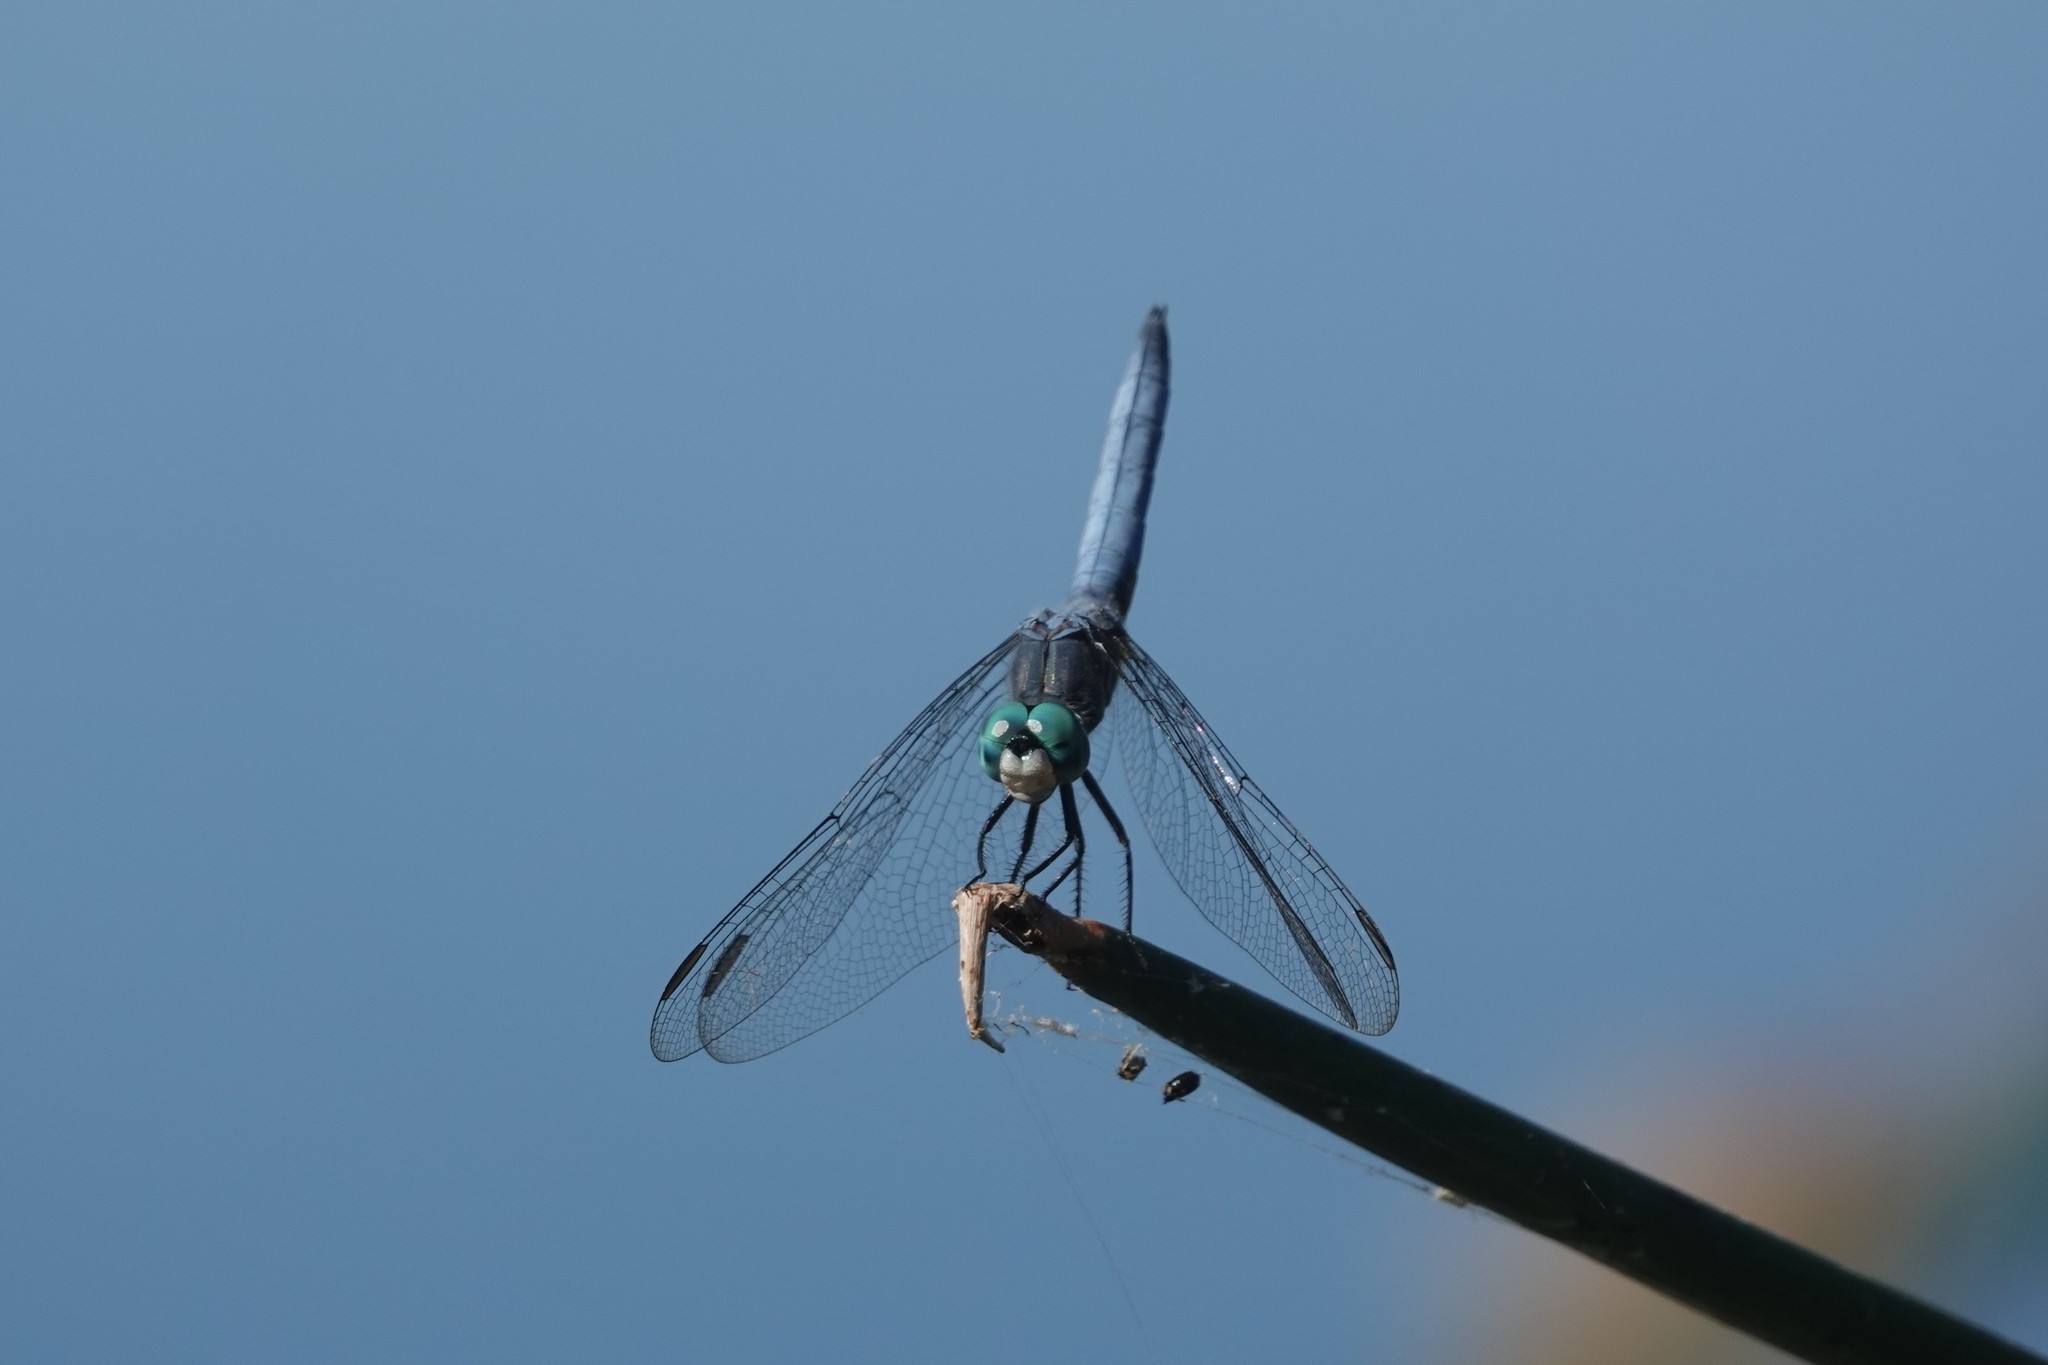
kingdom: Animalia
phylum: Arthropoda
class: Insecta
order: Odonata
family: Libellulidae
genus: Pachydiplax
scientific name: Pachydiplax longipennis
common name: Blue dasher
